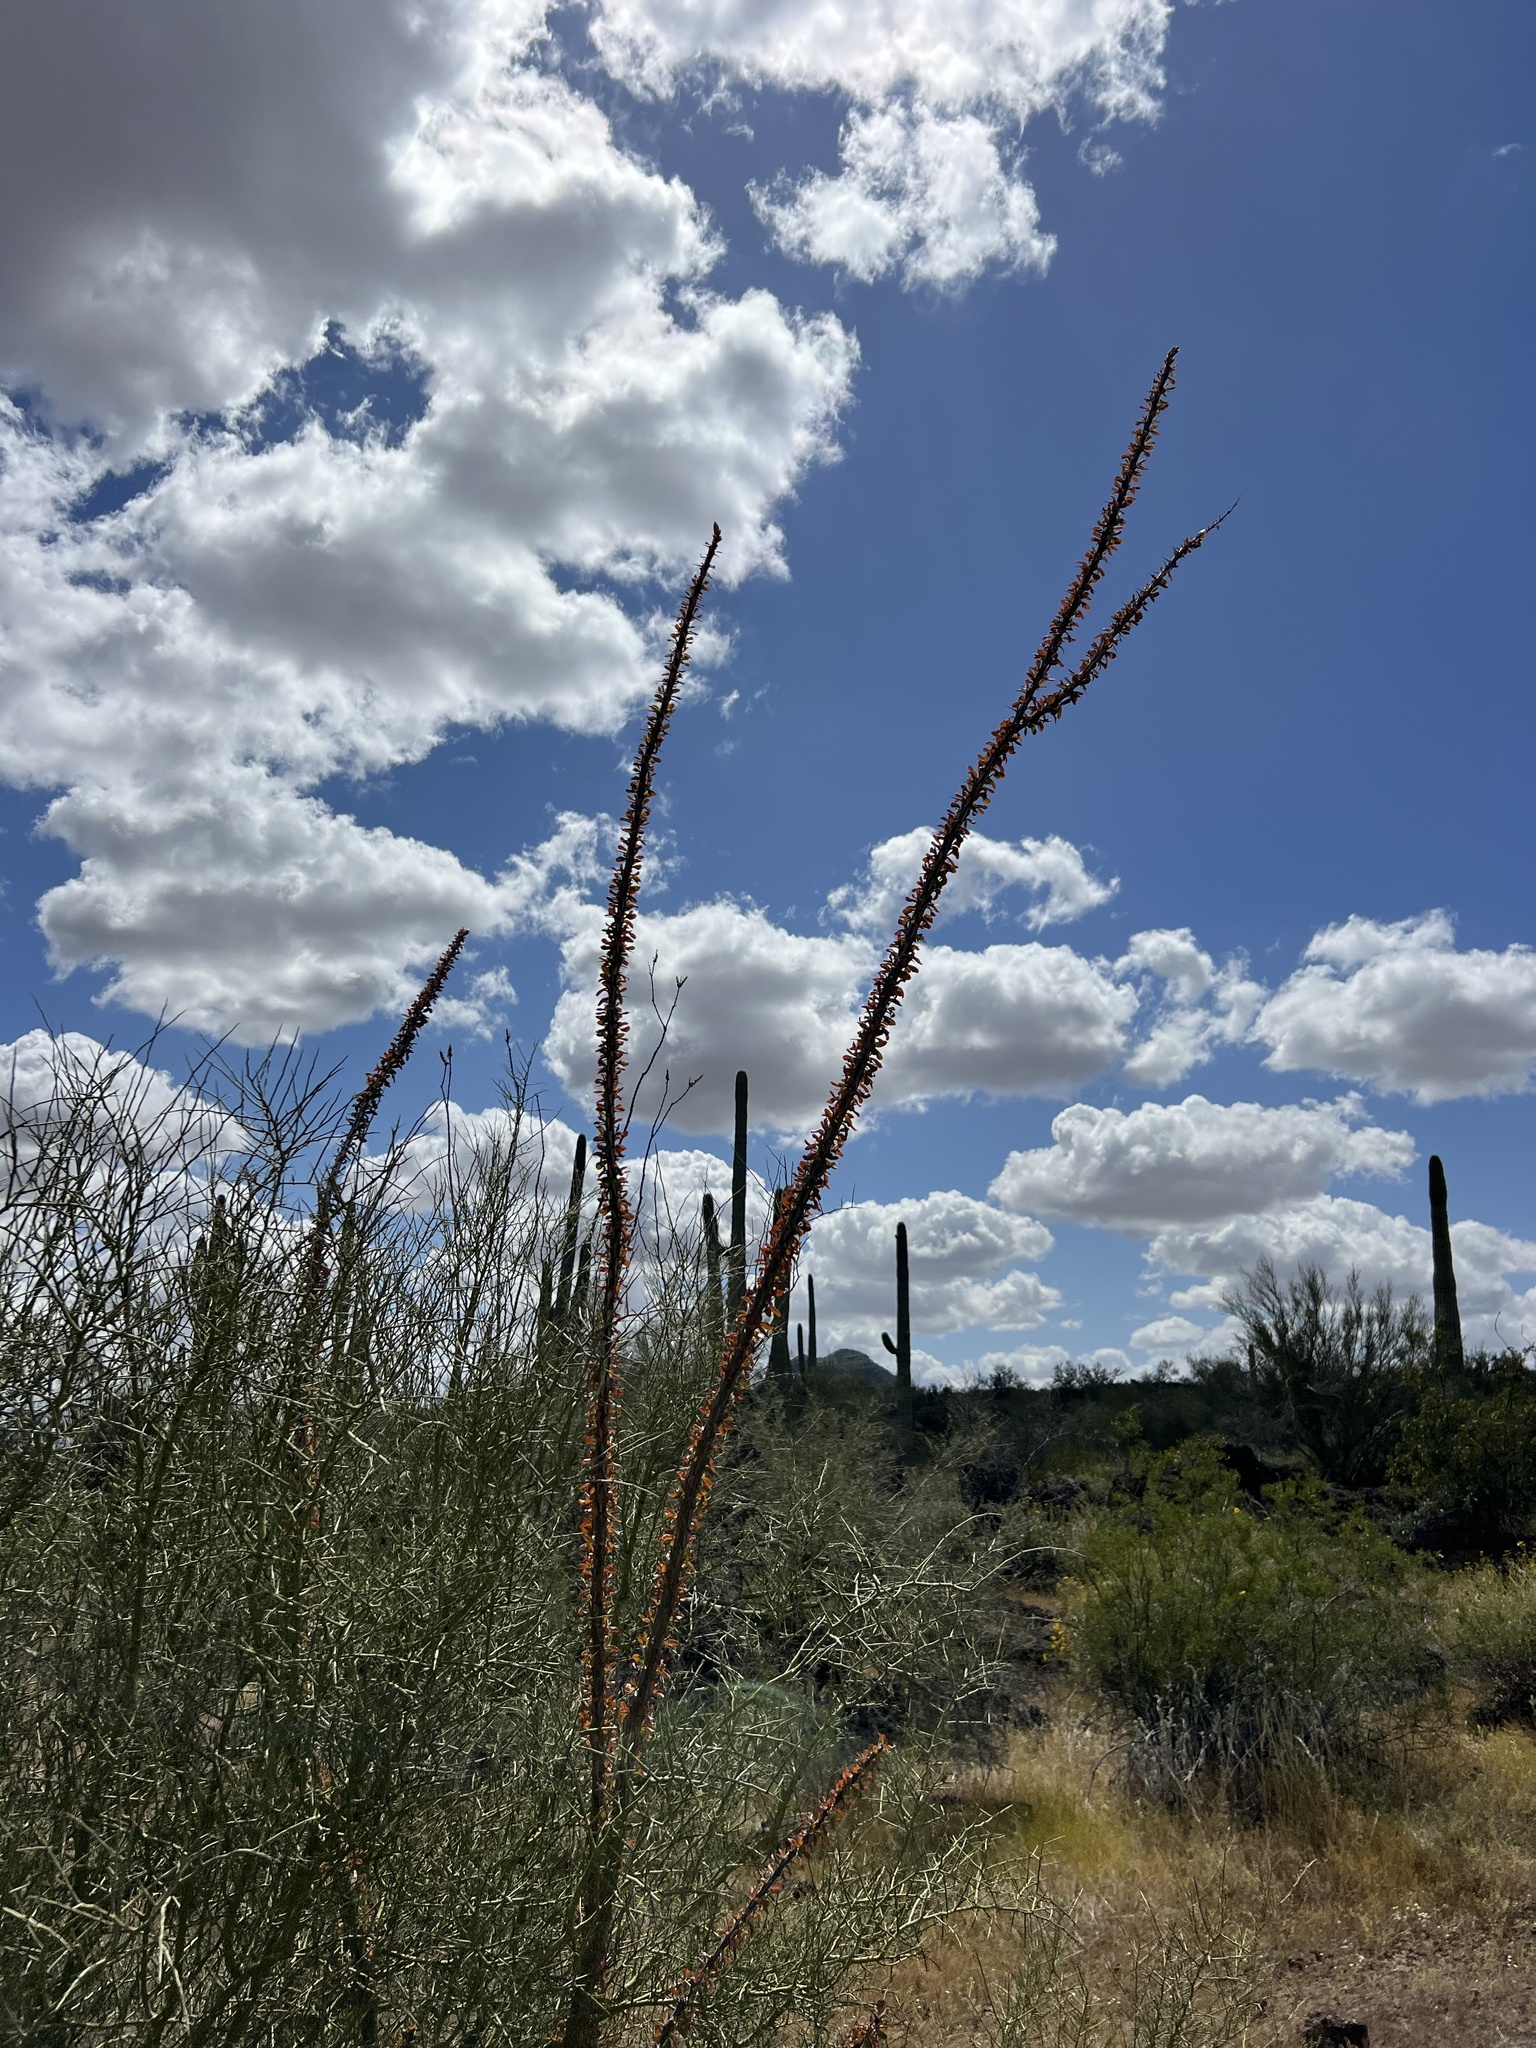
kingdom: Plantae
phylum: Tracheophyta
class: Magnoliopsida
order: Ericales
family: Fouquieriaceae
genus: Fouquieria
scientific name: Fouquieria splendens
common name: Vine-cactus
